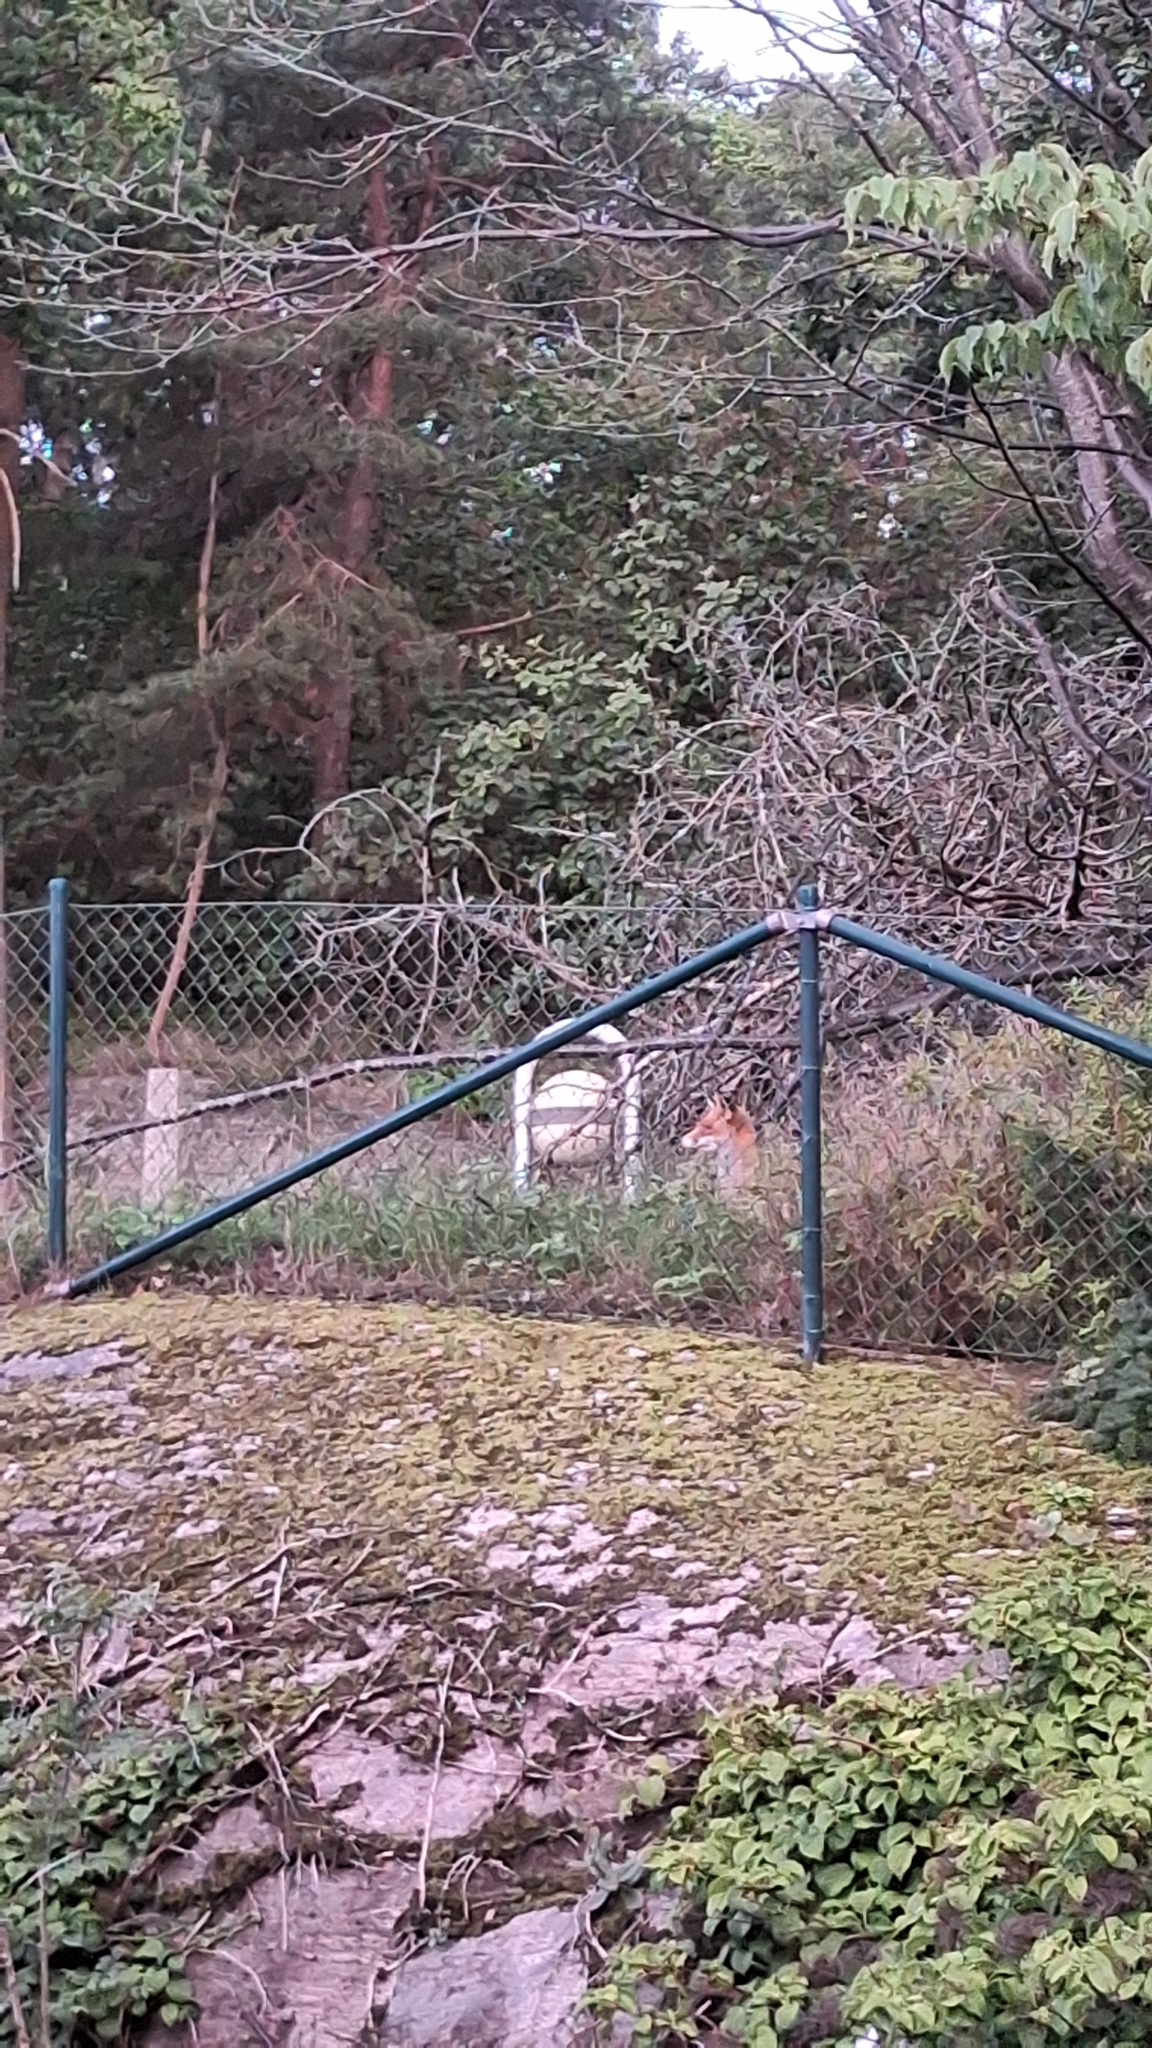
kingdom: Animalia
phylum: Chordata
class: Mammalia
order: Carnivora
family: Canidae
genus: Vulpes
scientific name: Vulpes vulpes
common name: Red fox
